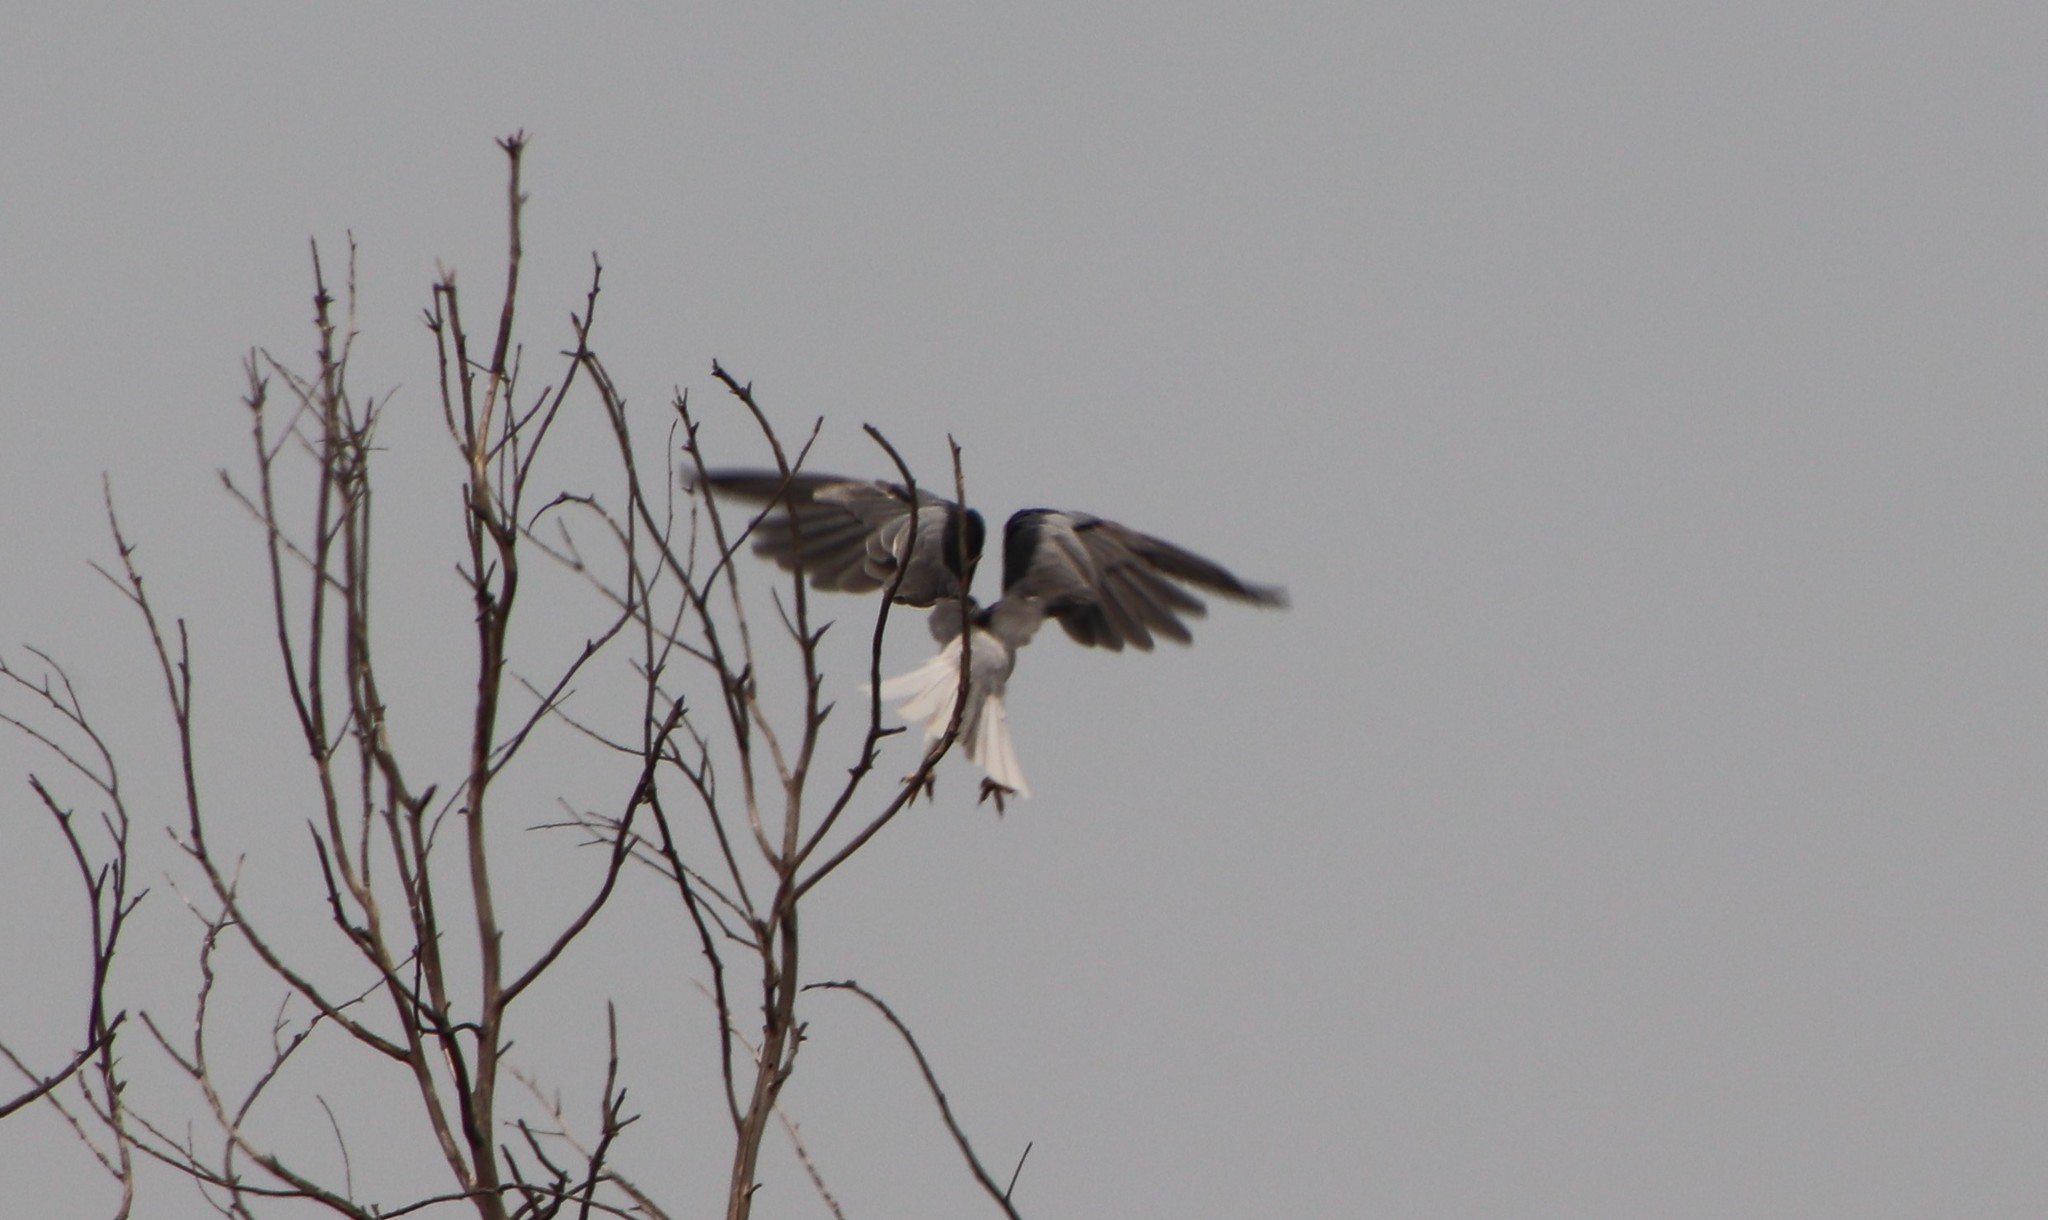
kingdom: Animalia
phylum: Chordata
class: Aves
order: Accipitriformes
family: Accipitridae
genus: Elanus
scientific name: Elanus leucurus
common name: White-tailed kite
